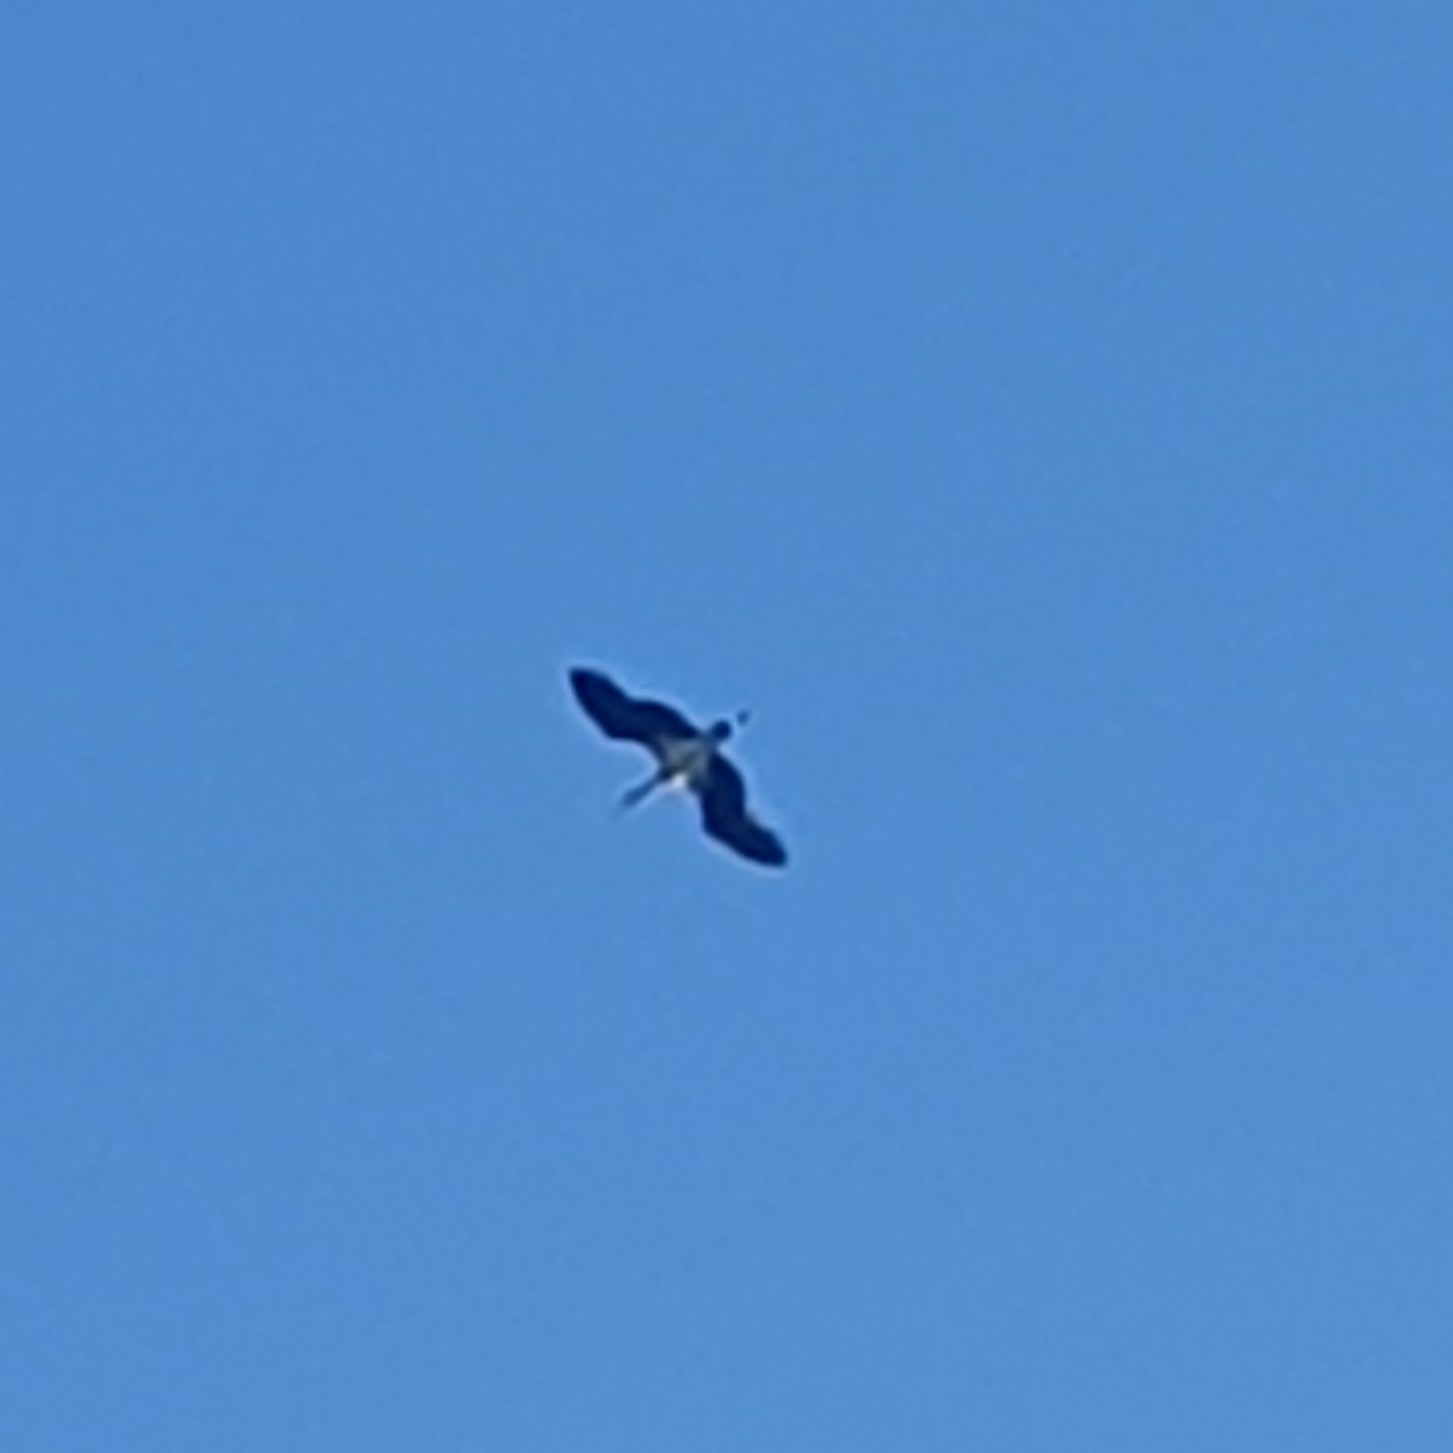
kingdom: Animalia
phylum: Chordata
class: Aves
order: Ciconiiformes
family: Ciconiidae
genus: Ciconia
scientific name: Ciconia nigra
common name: Black stork
